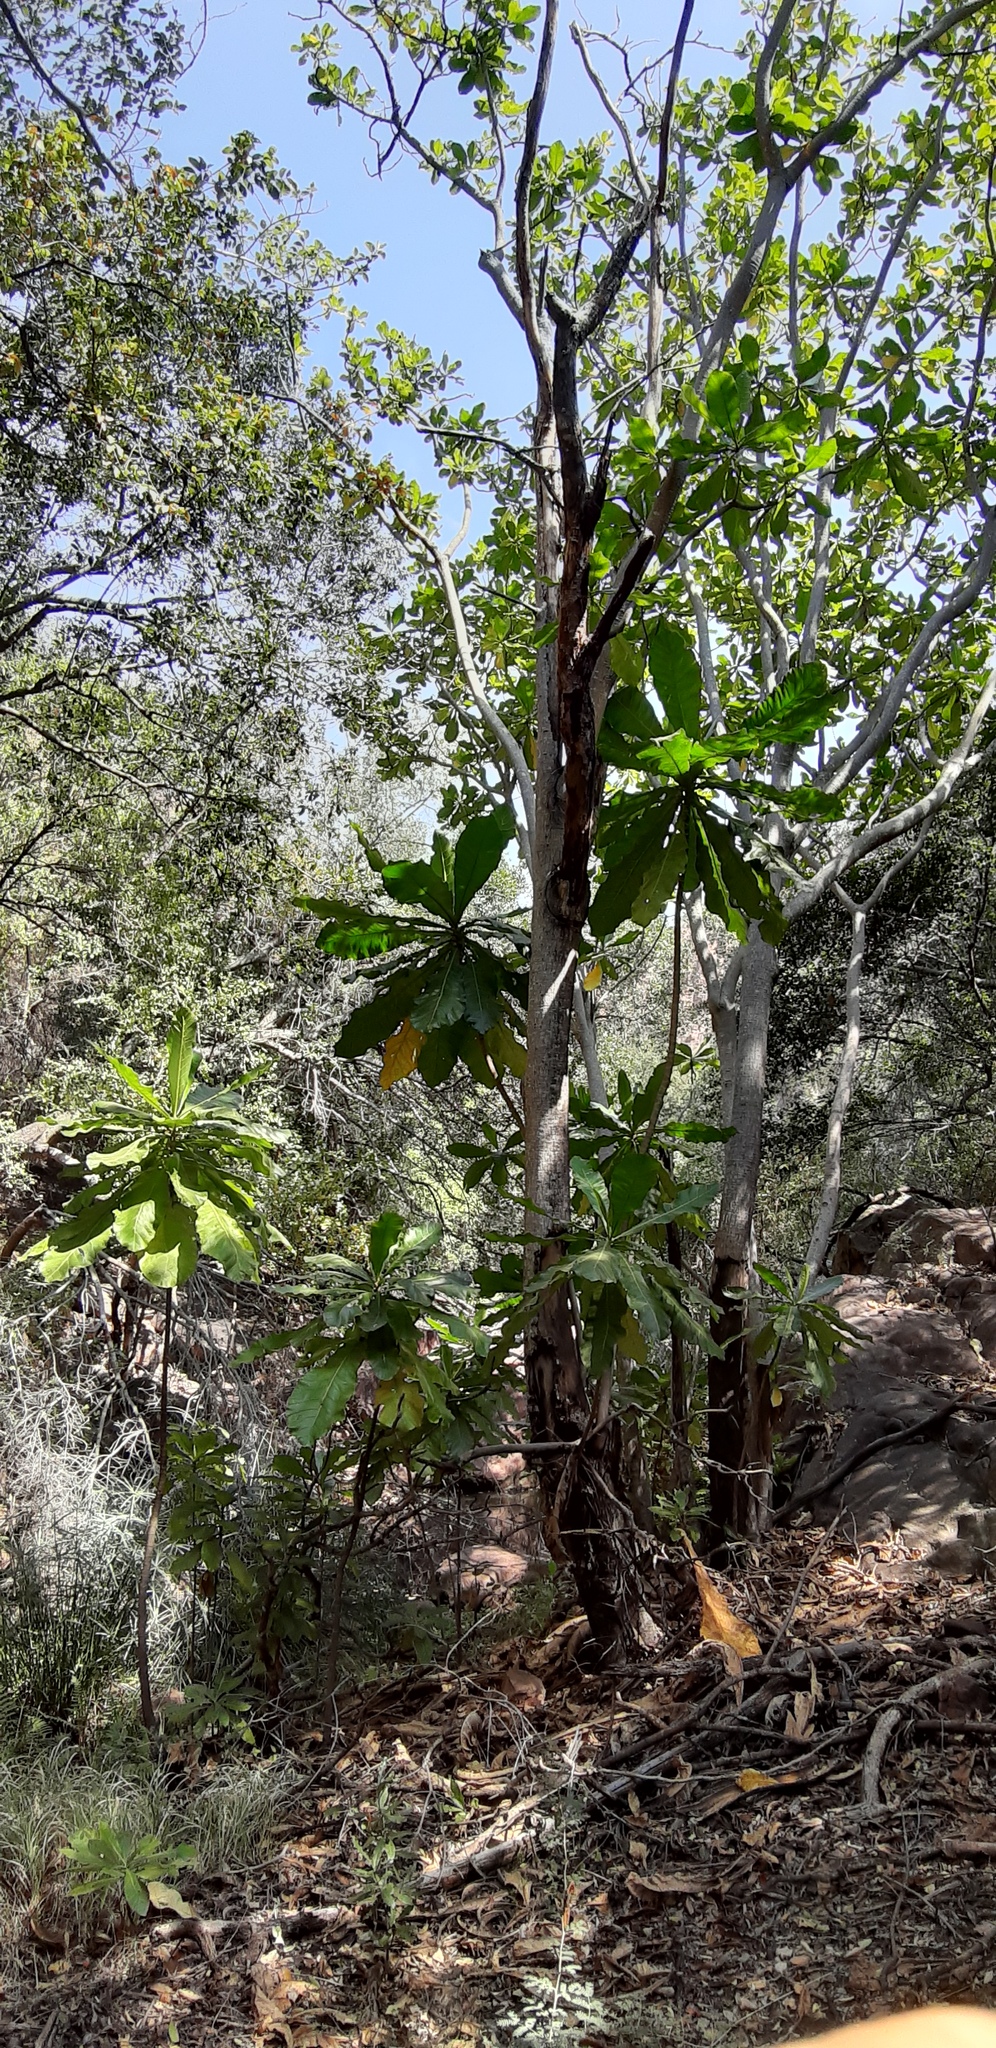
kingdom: Plantae
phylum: Tracheophyta
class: Magnoliopsida
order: Gentianales
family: Gentianaceae
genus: Anthocleista
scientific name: Anthocleista grandiflora
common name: Forest big-leaf
